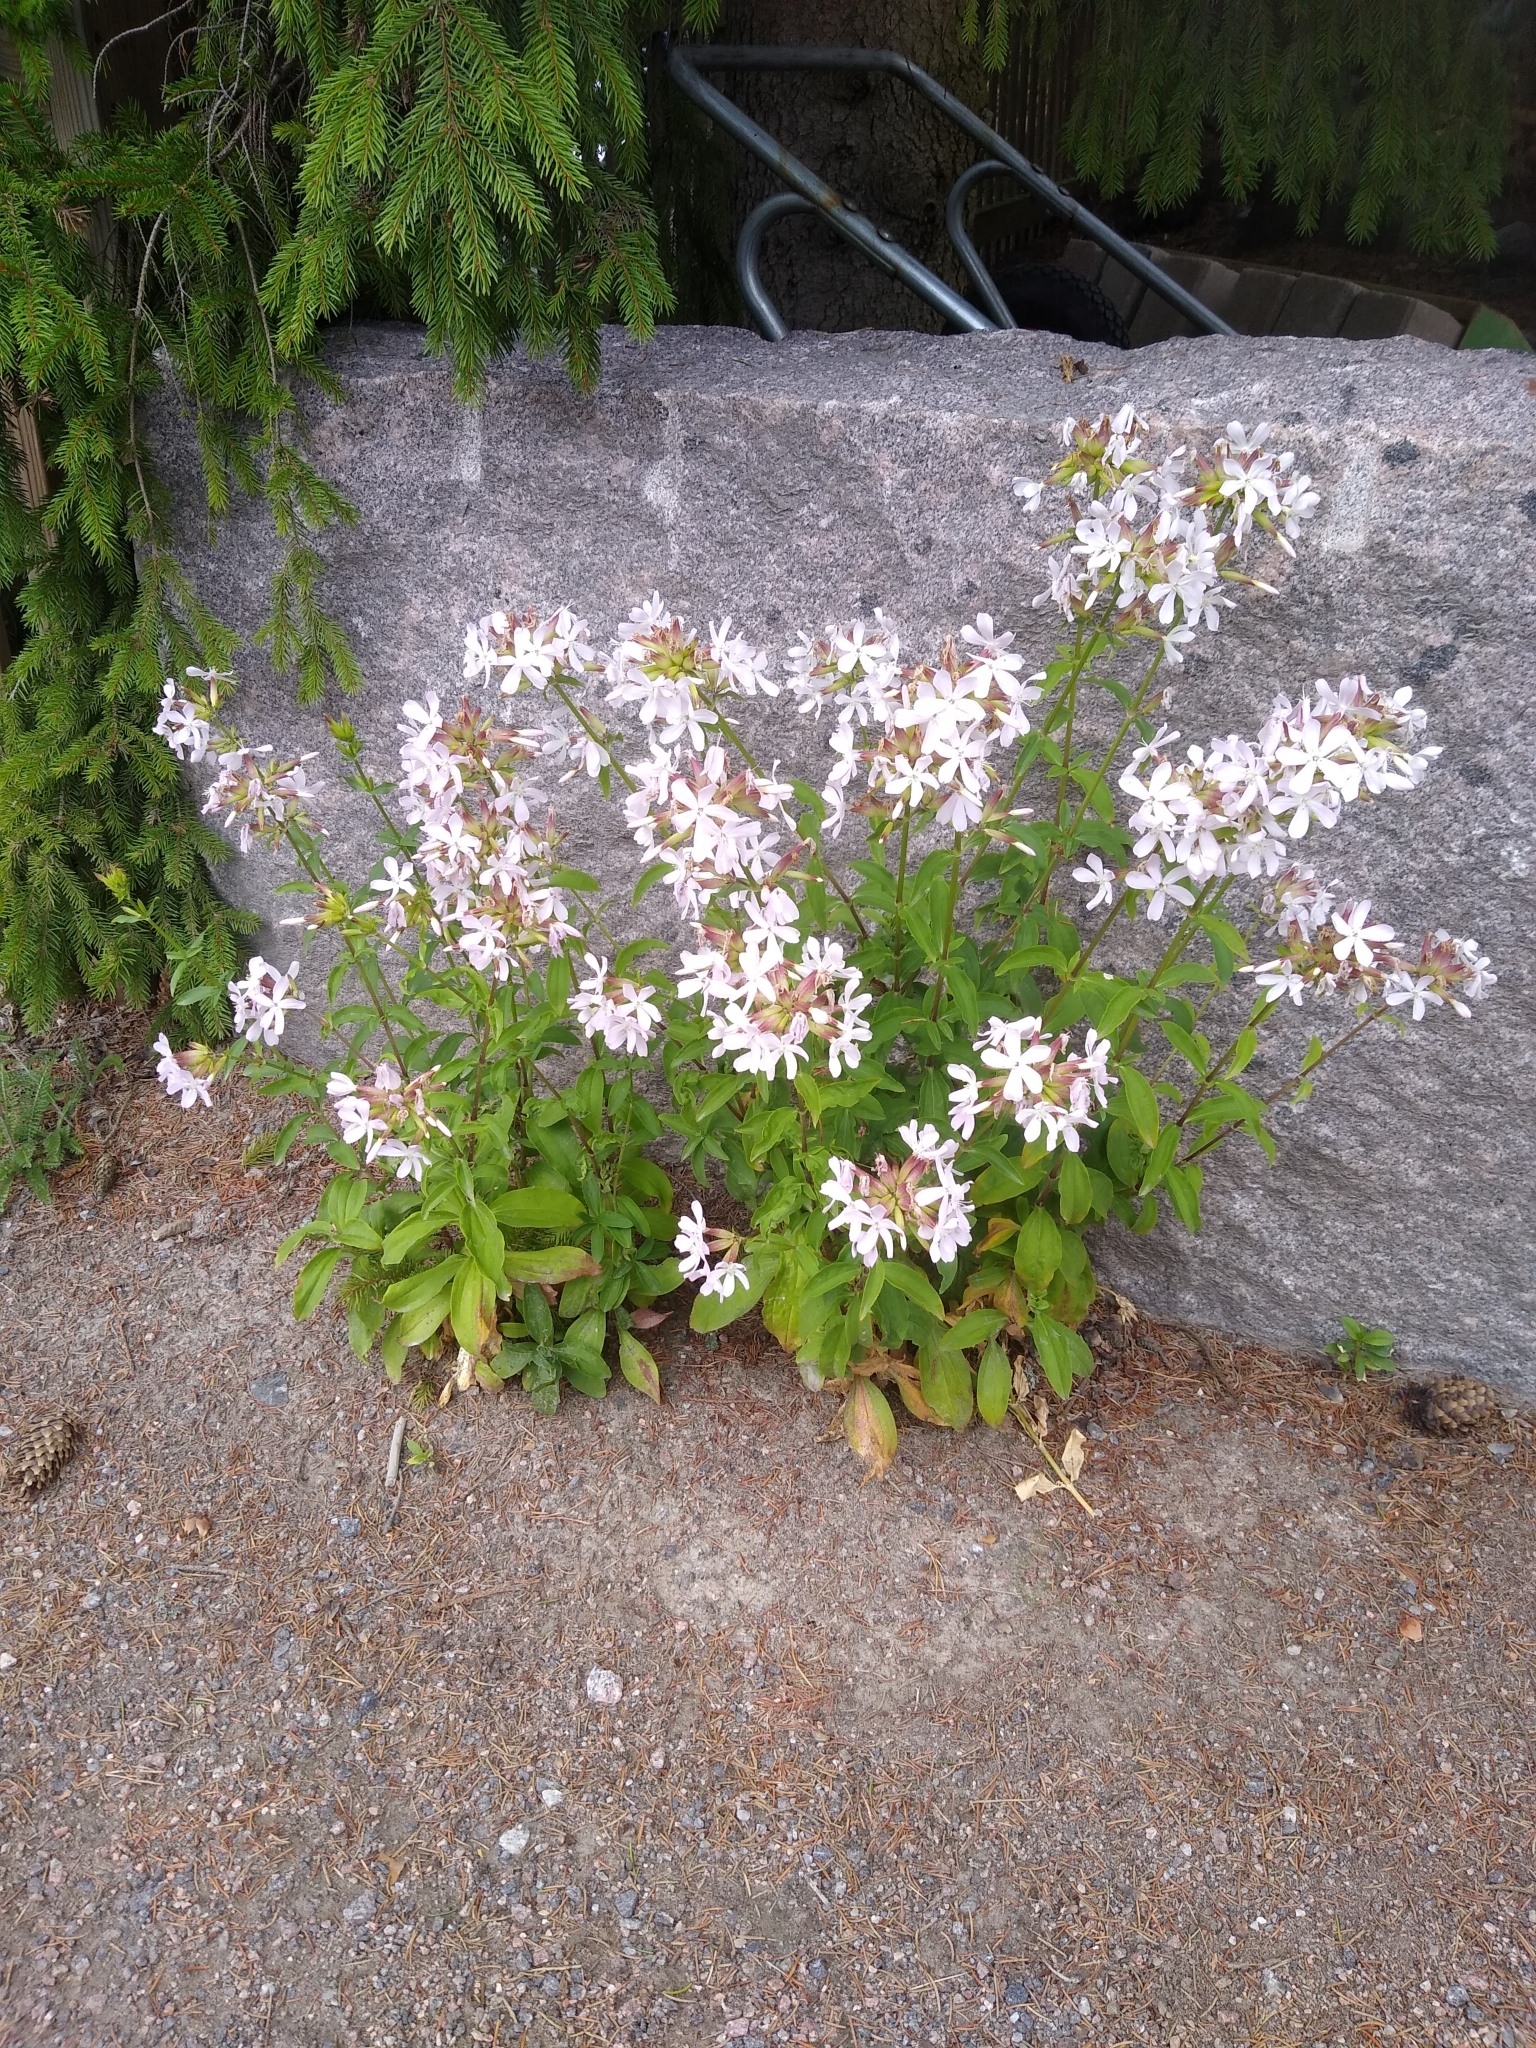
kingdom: Plantae
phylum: Tracheophyta
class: Magnoliopsida
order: Caryophyllales
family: Caryophyllaceae
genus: Saponaria
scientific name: Saponaria officinalis
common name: Soapwort
